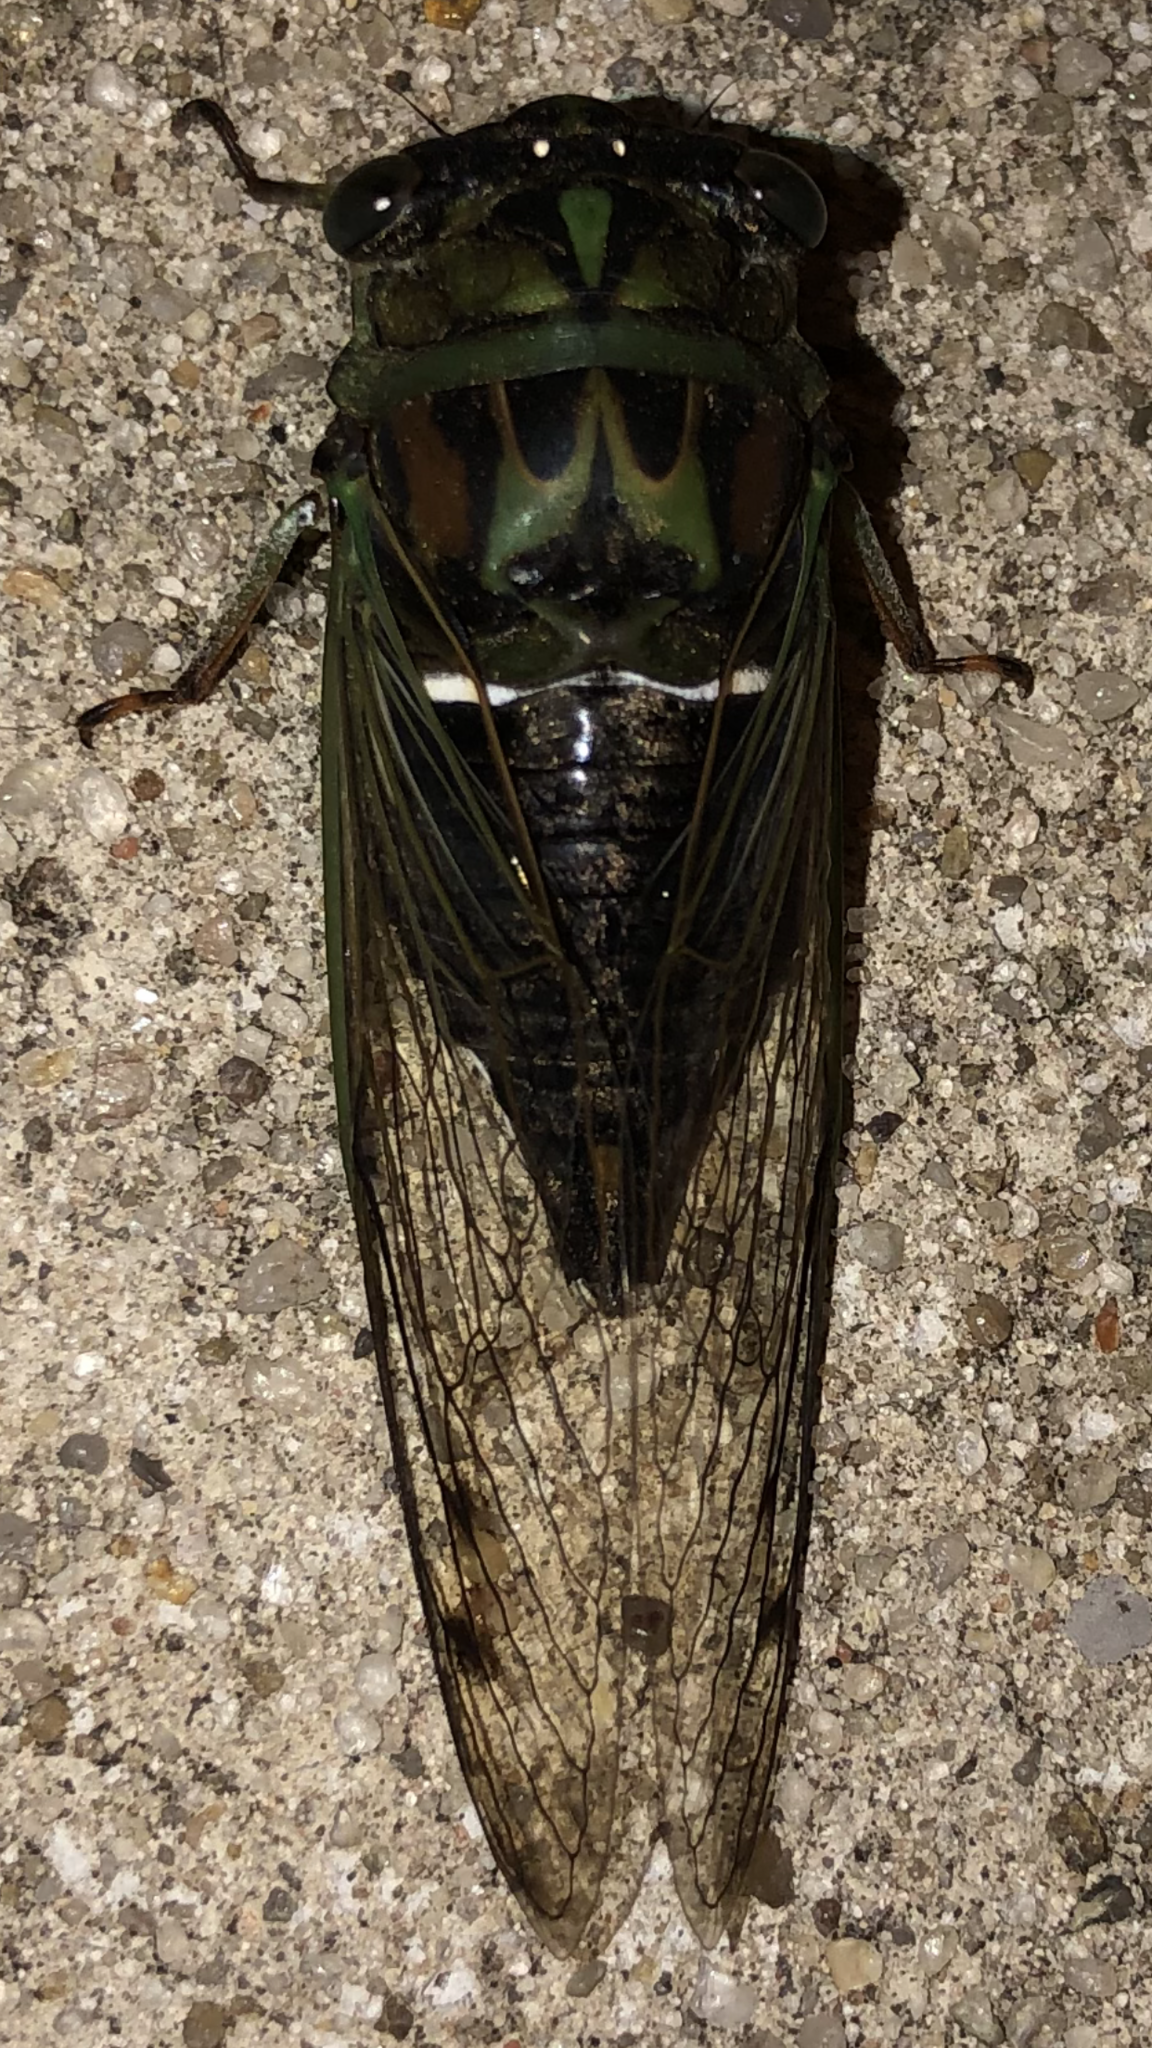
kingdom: Animalia
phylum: Arthropoda
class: Insecta
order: Hemiptera
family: Cicadidae
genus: Neotibicen
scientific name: Neotibicen robinsonianus
